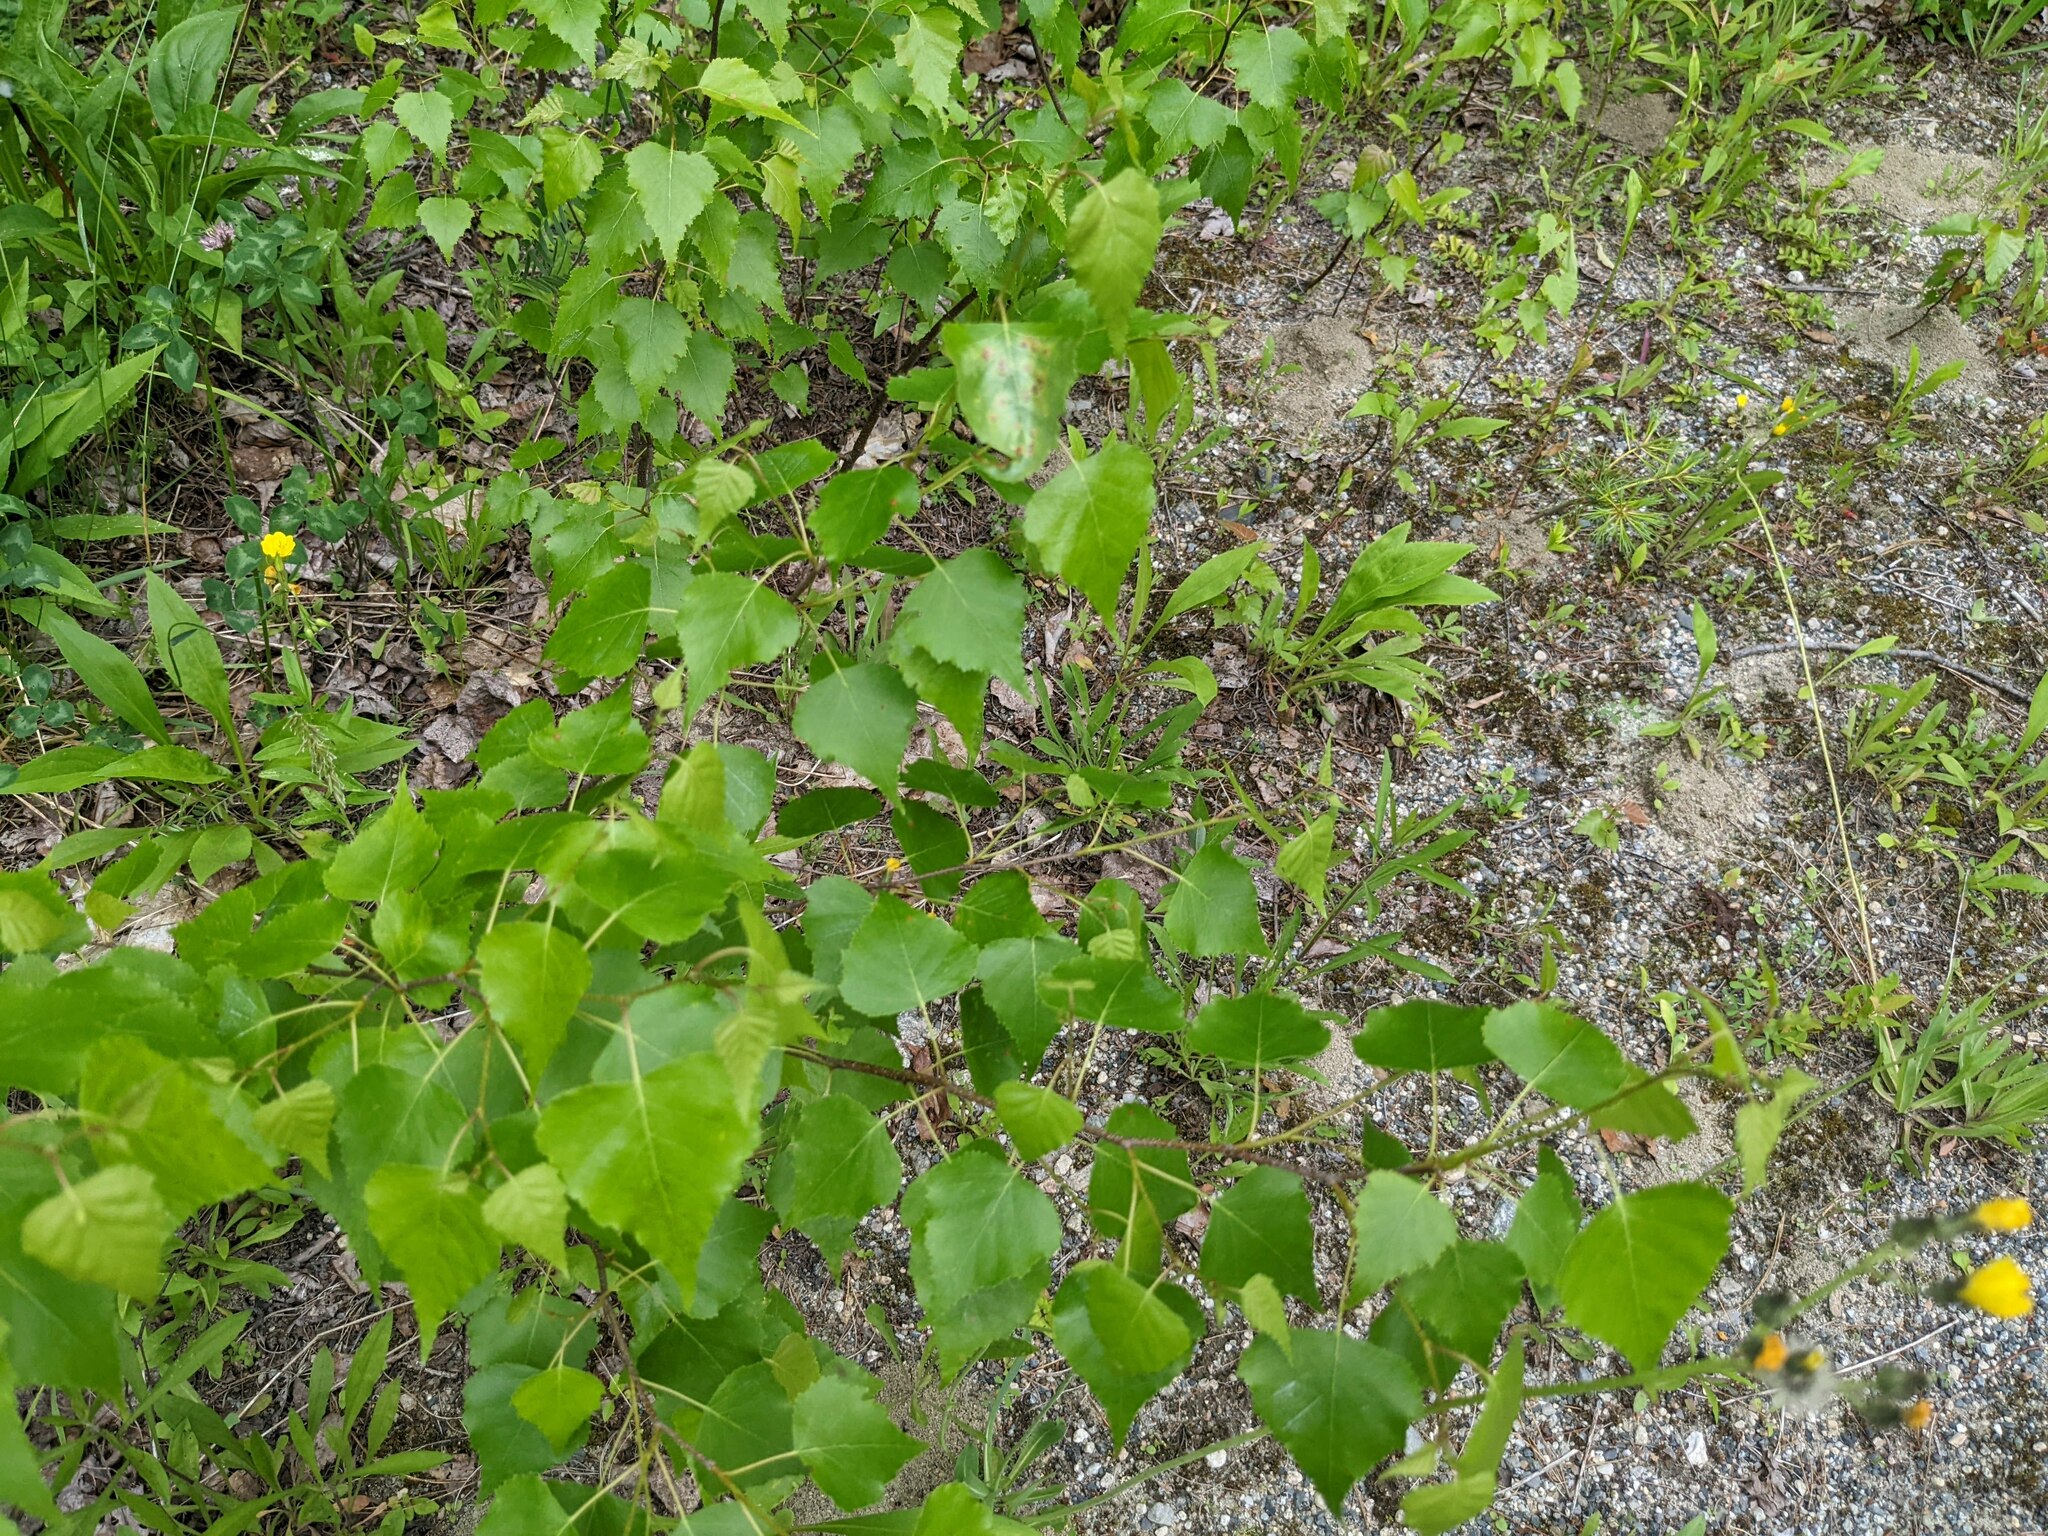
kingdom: Plantae
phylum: Tracheophyta
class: Magnoliopsida
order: Fagales
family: Betulaceae
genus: Betula
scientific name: Betula populifolia
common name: Fire birch
